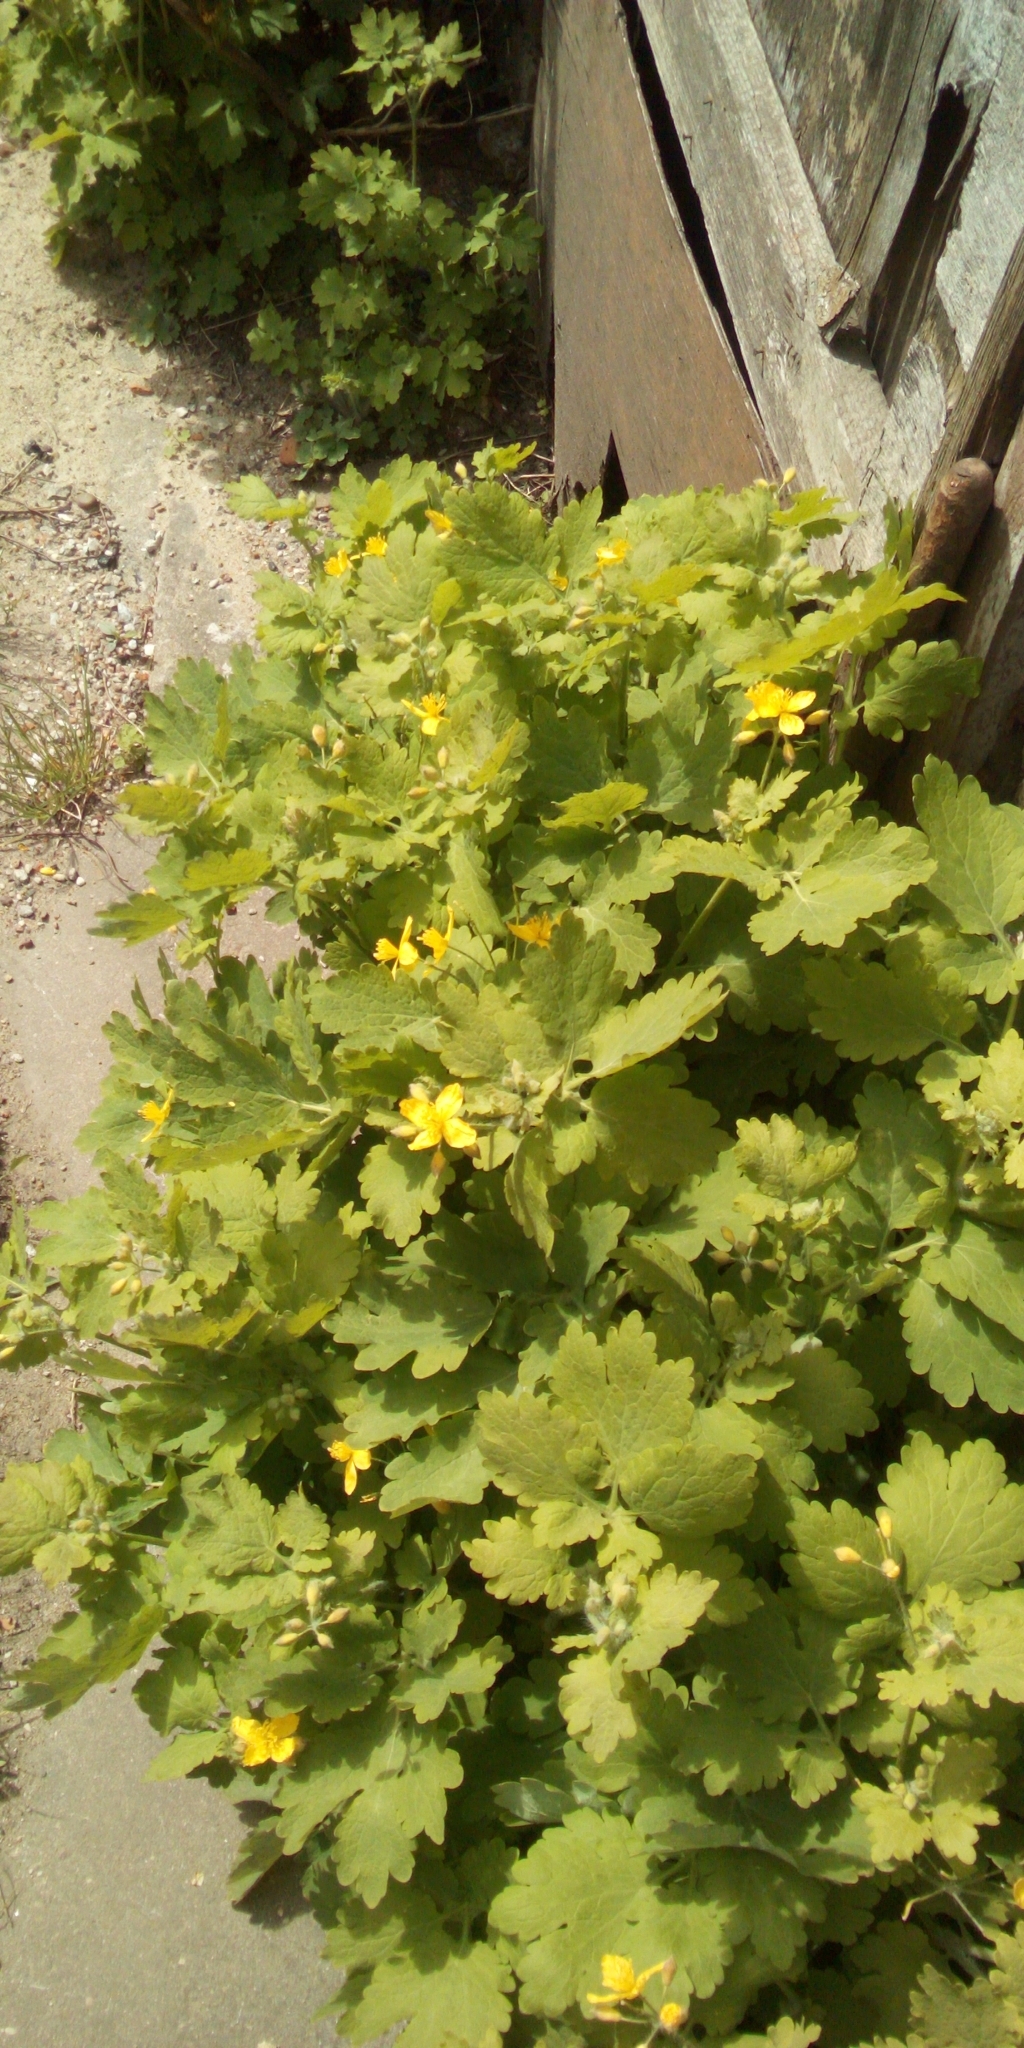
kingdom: Plantae
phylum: Tracheophyta
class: Magnoliopsida
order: Ranunculales
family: Papaveraceae
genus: Chelidonium
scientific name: Chelidonium majus
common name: Greater celandine
